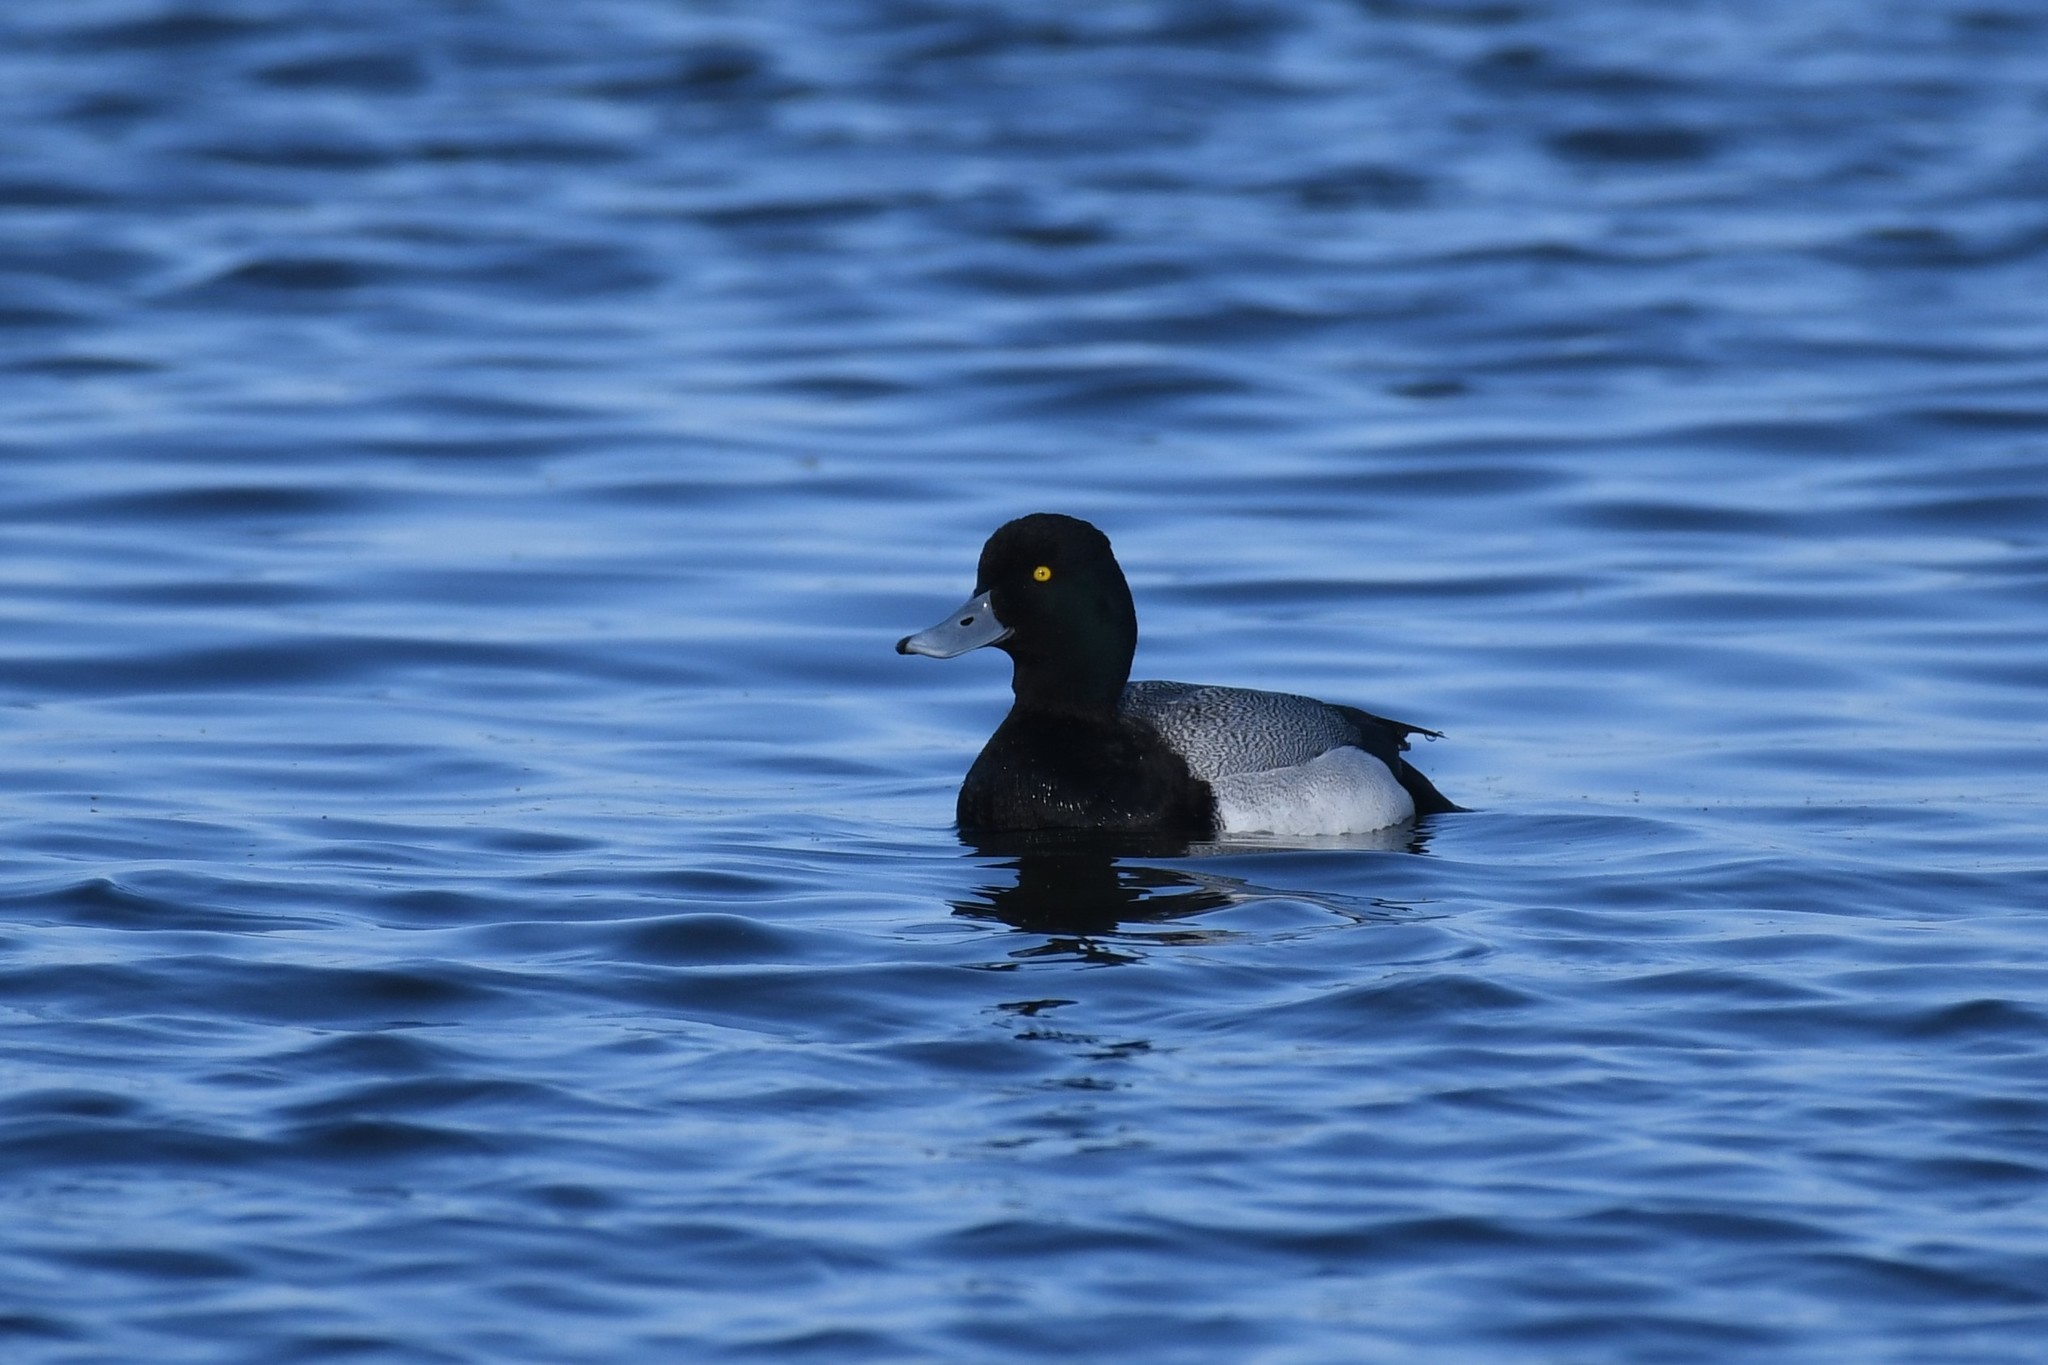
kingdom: Animalia
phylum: Chordata
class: Aves
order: Anseriformes
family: Anatidae
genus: Aythya
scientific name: Aythya affinis
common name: Lesser scaup
